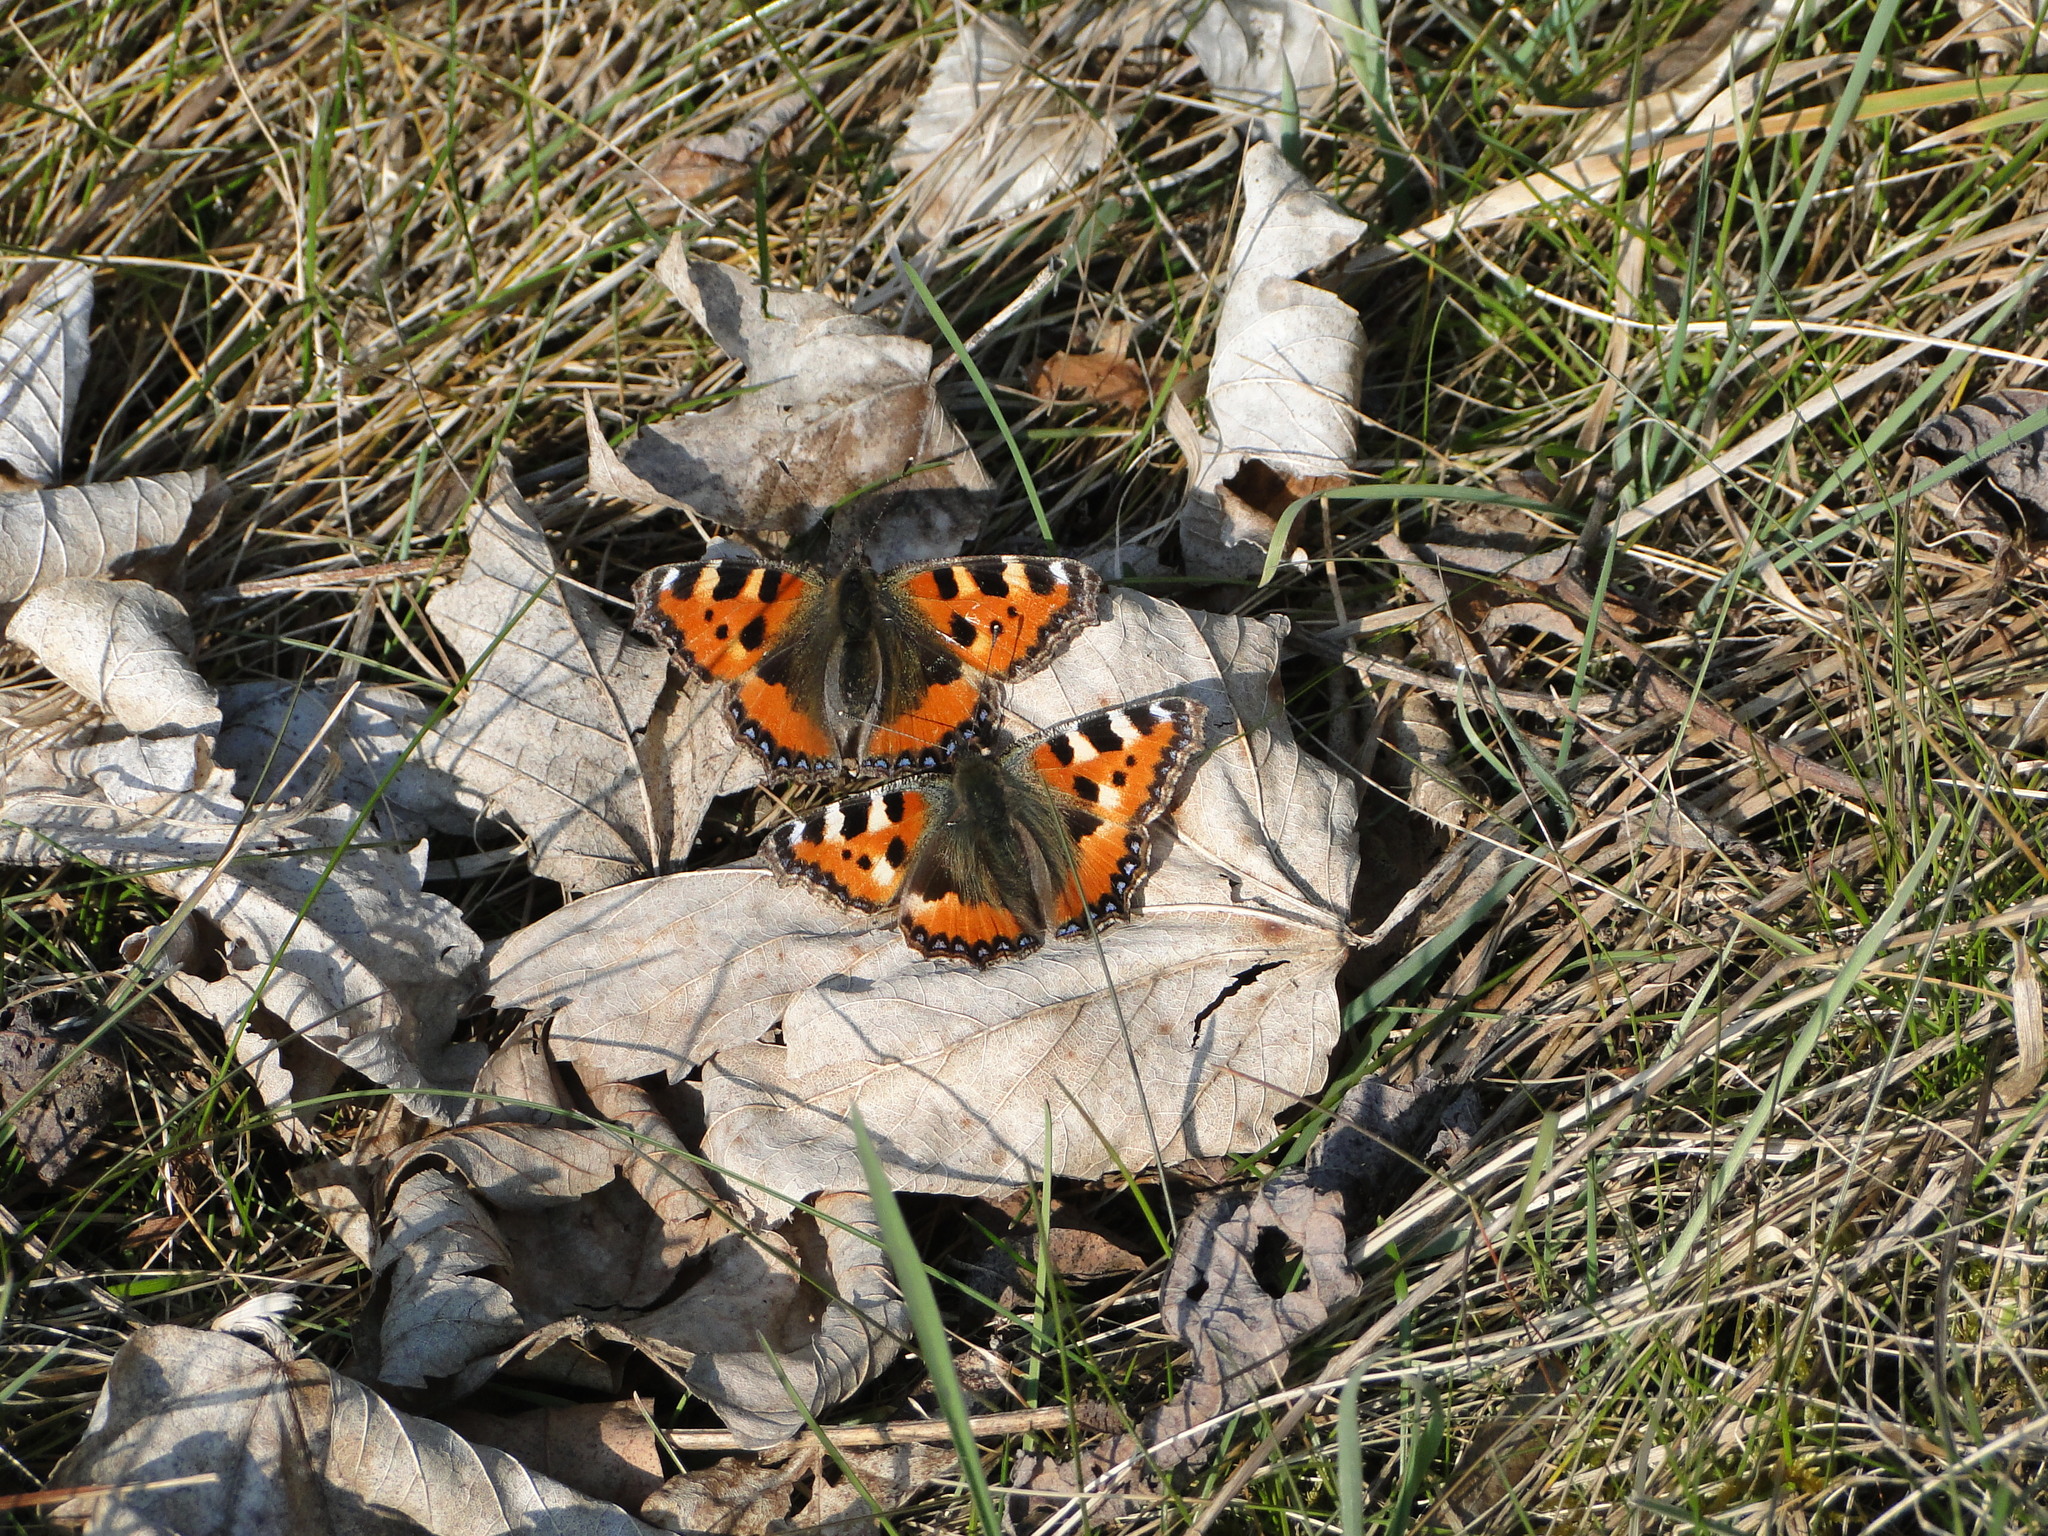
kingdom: Animalia
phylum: Arthropoda
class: Insecta
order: Lepidoptera
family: Nymphalidae
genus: Aglais
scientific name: Aglais urticae
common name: Small tortoiseshell
